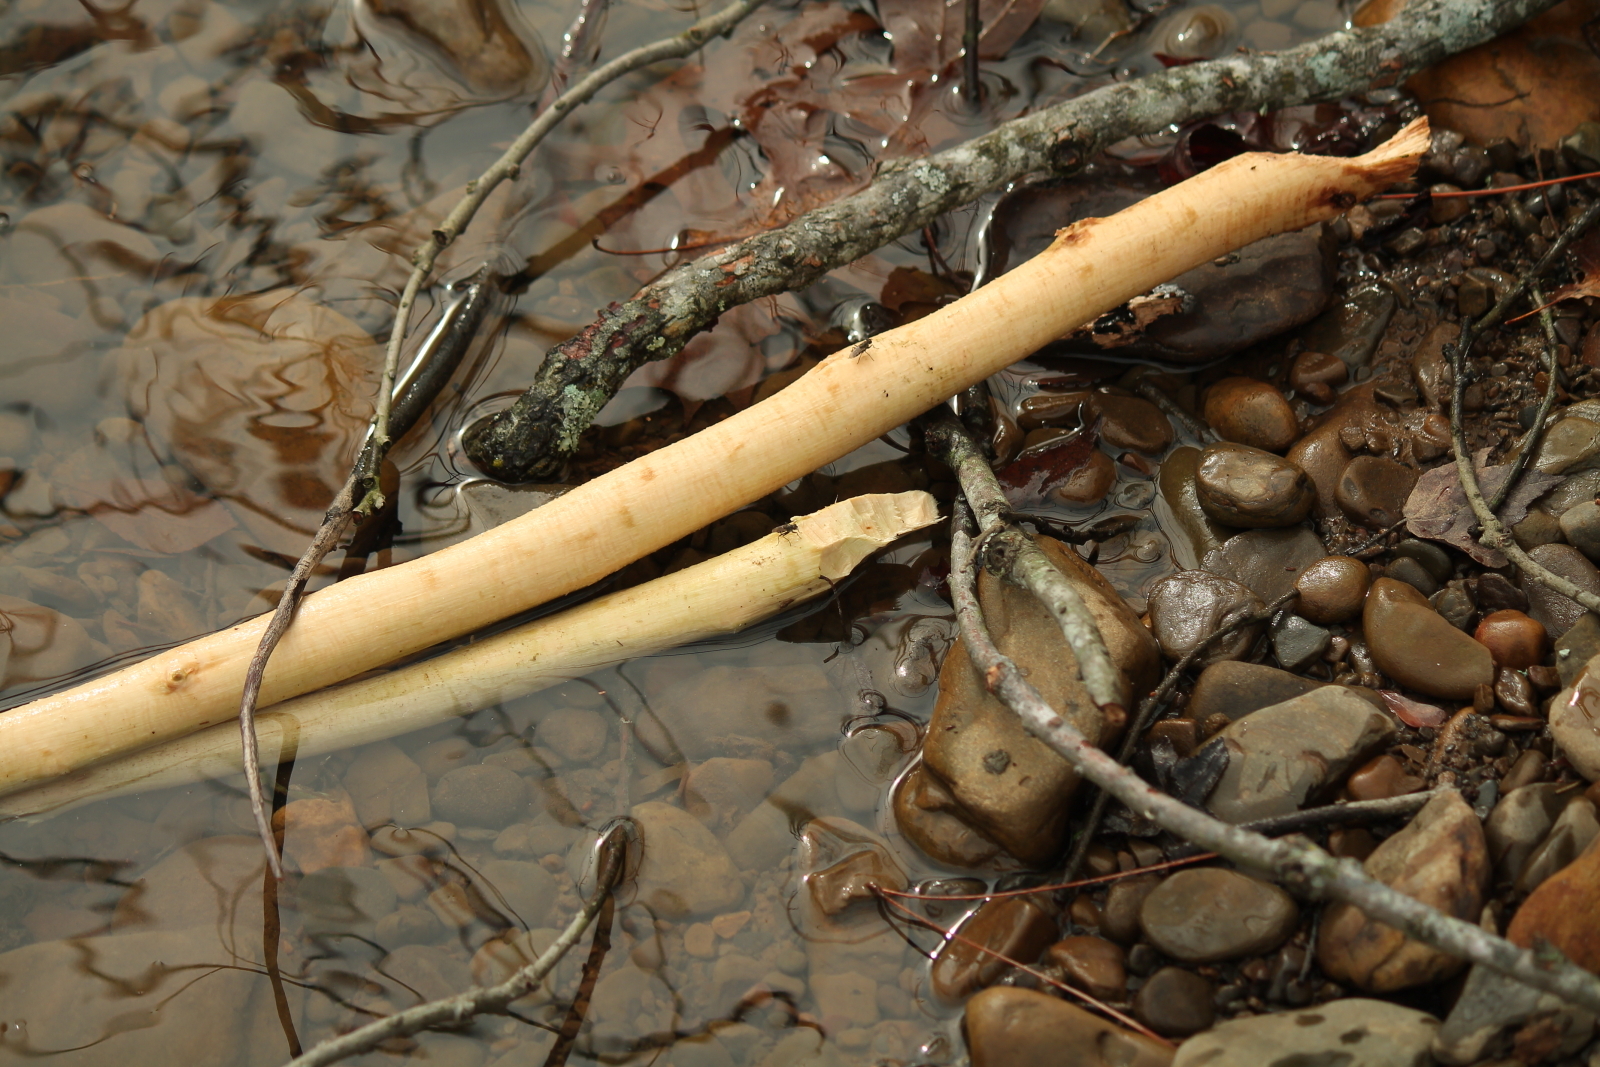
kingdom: Animalia
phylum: Chordata
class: Mammalia
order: Rodentia
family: Castoridae
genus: Castor
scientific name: Castor canadensis
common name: American beaver
